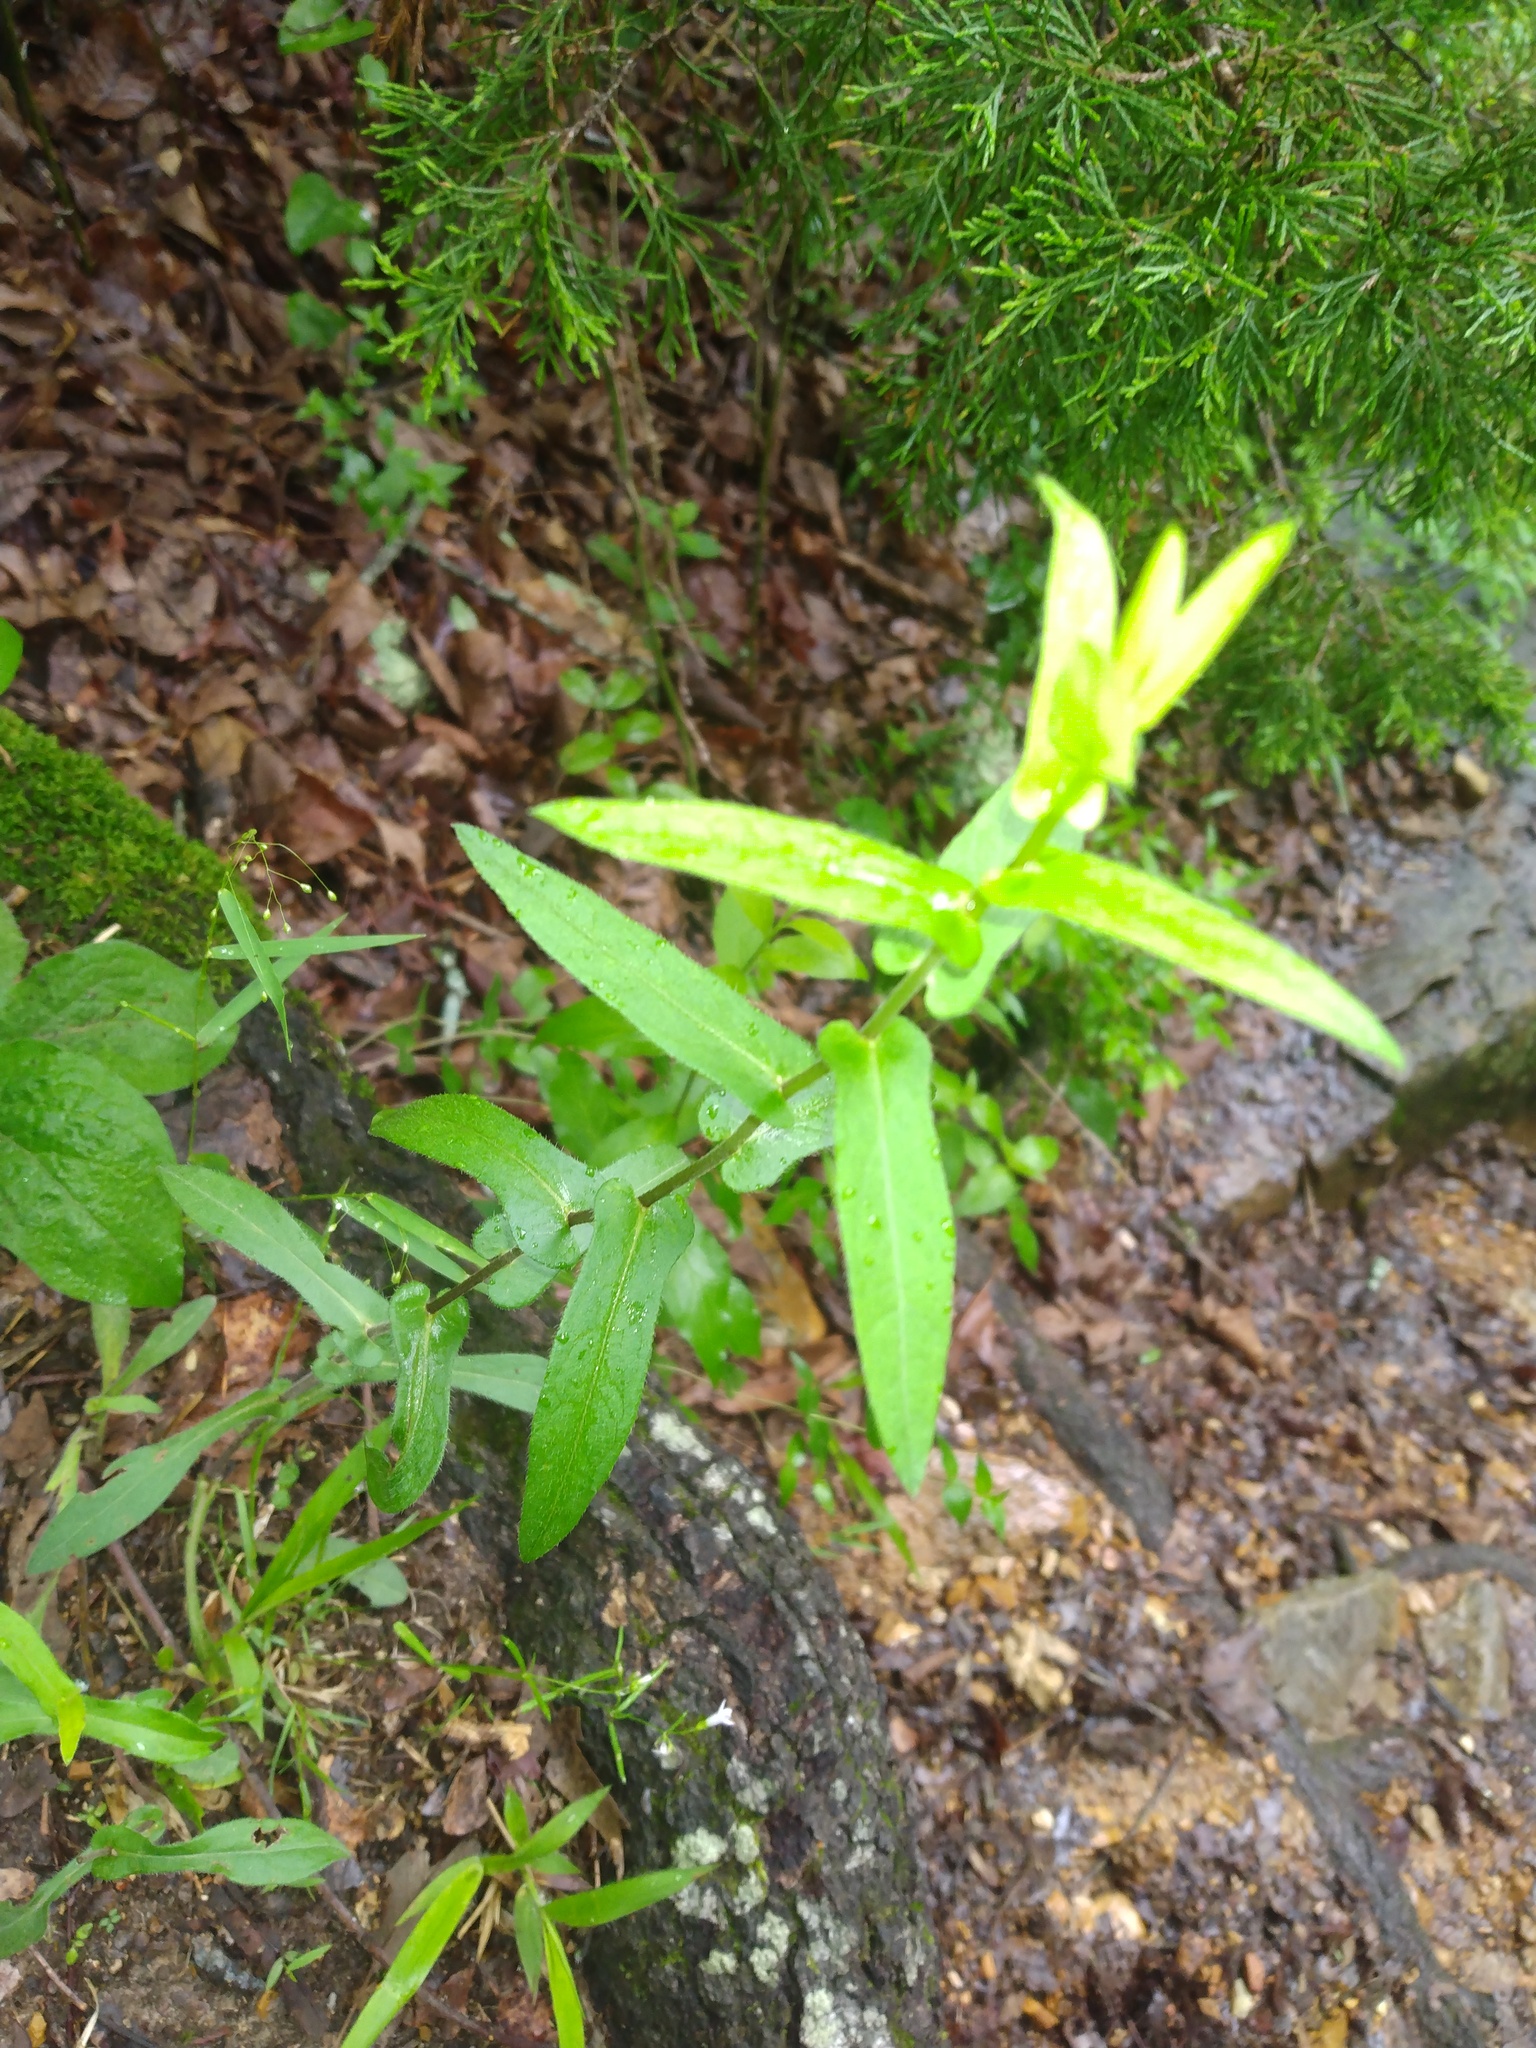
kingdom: Plantae
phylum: Tracheophyta
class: Magnoliopsida
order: Asterales
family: Asteraceae
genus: Symphyotrichum
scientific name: Symphyotrichum patens
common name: Late purple aster
